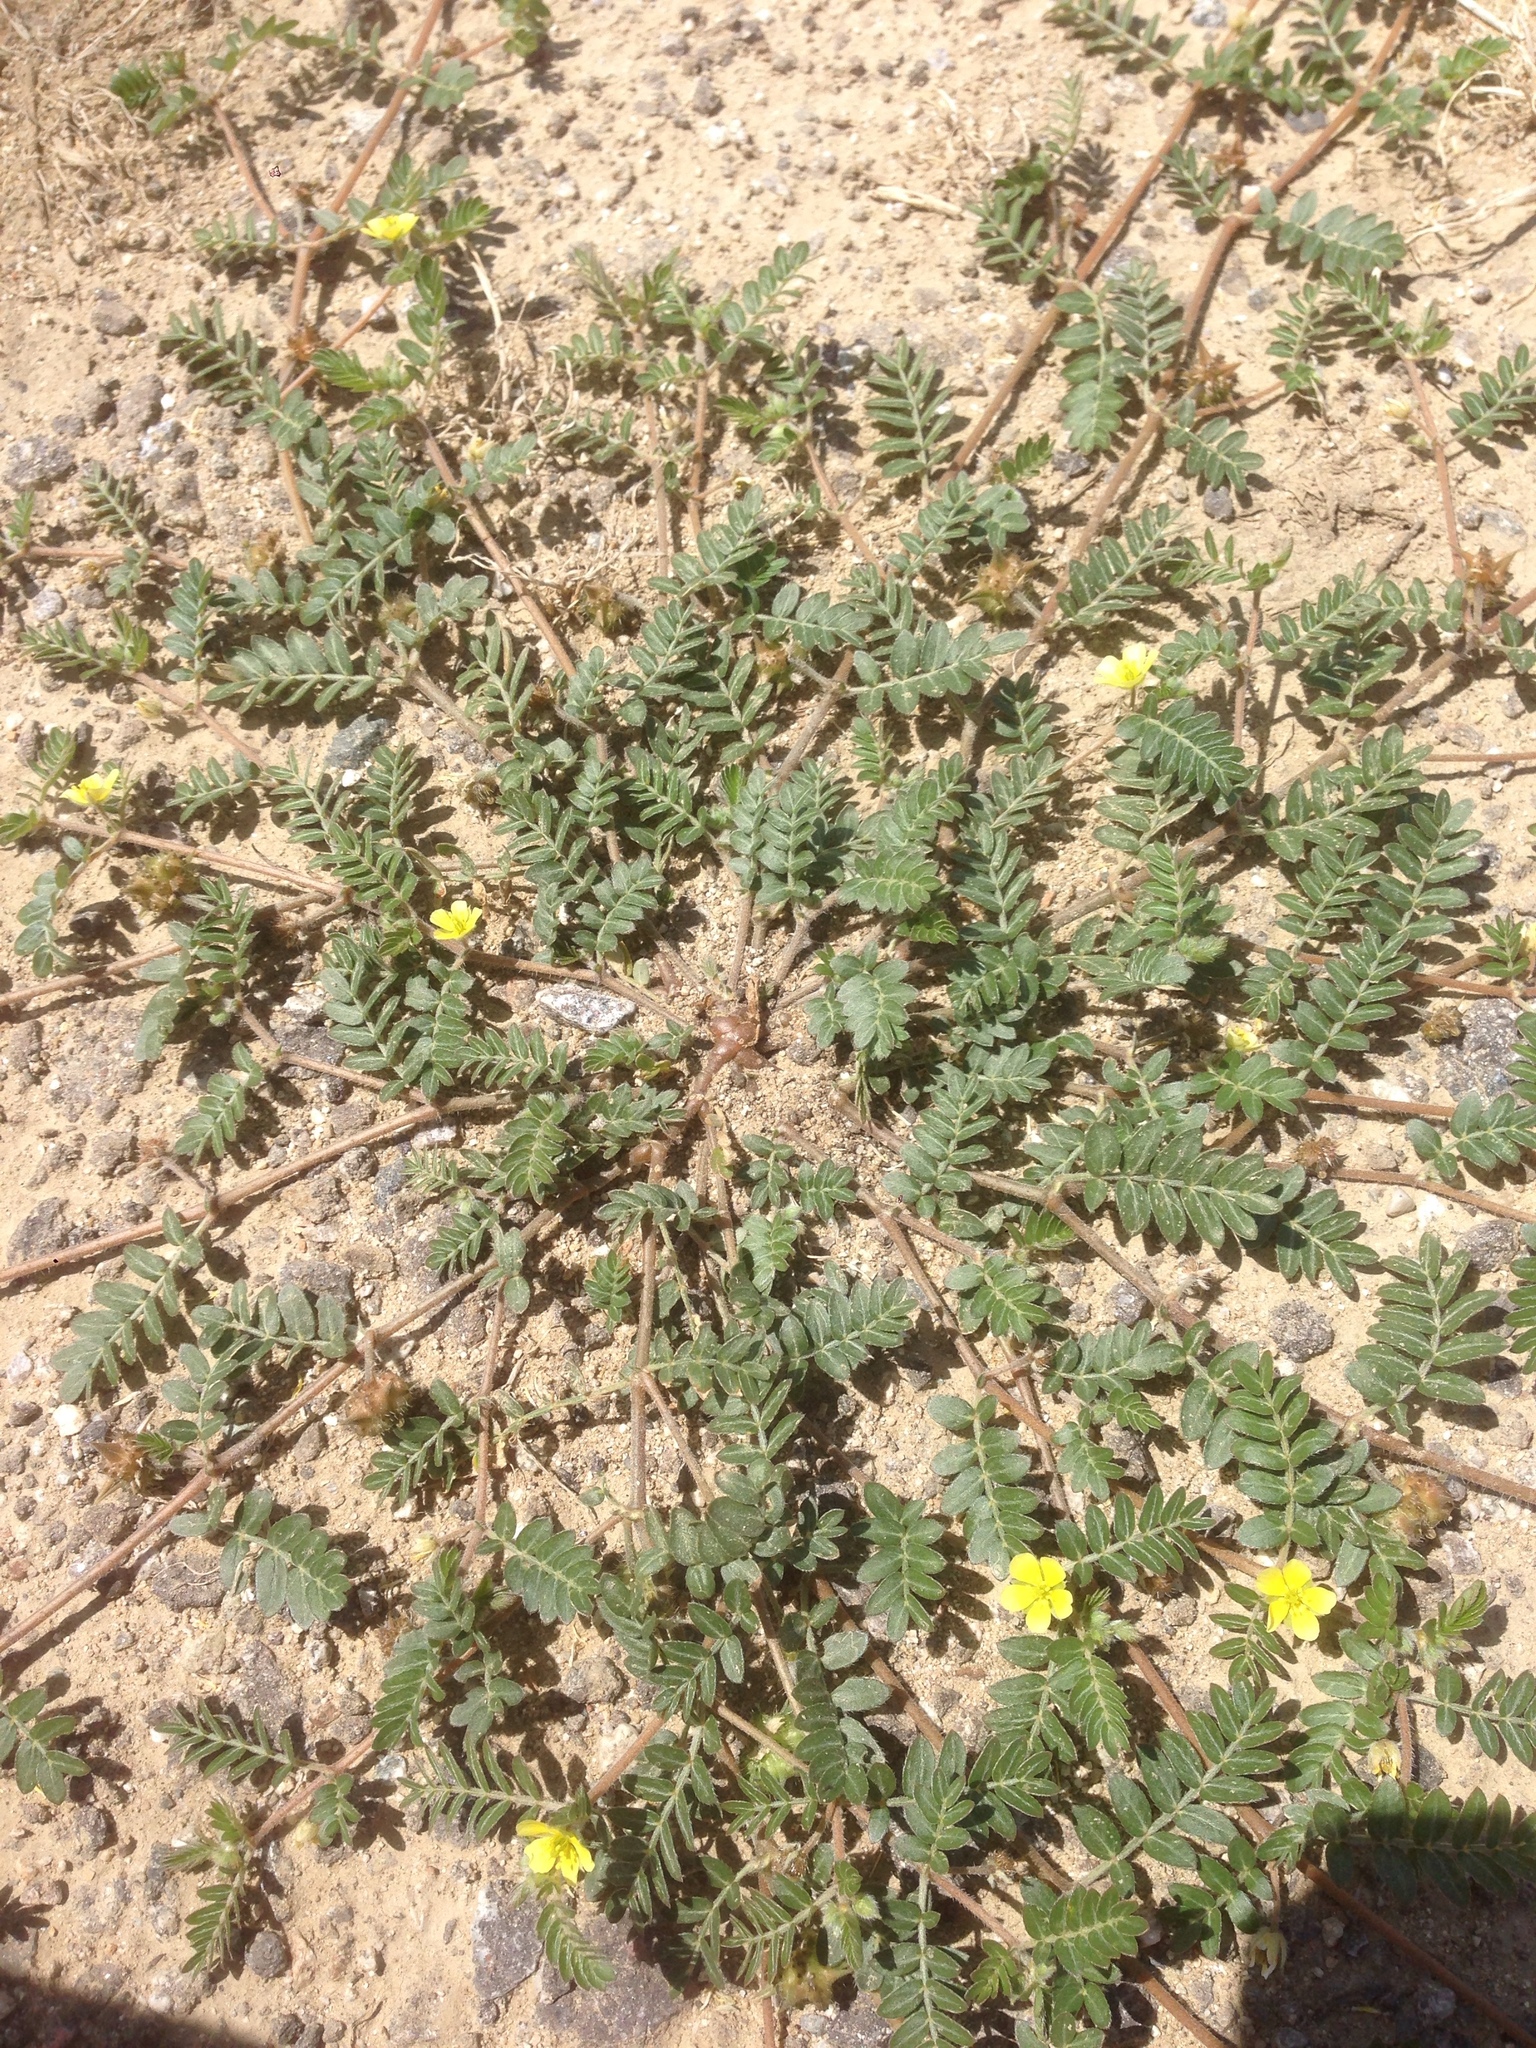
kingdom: Plantae
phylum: Tracheophyta
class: Magnoliopsida
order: Zygophyllales
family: Zygophyllaceae
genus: Tribulus
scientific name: Tribulus terrestris
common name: Puncturevine
